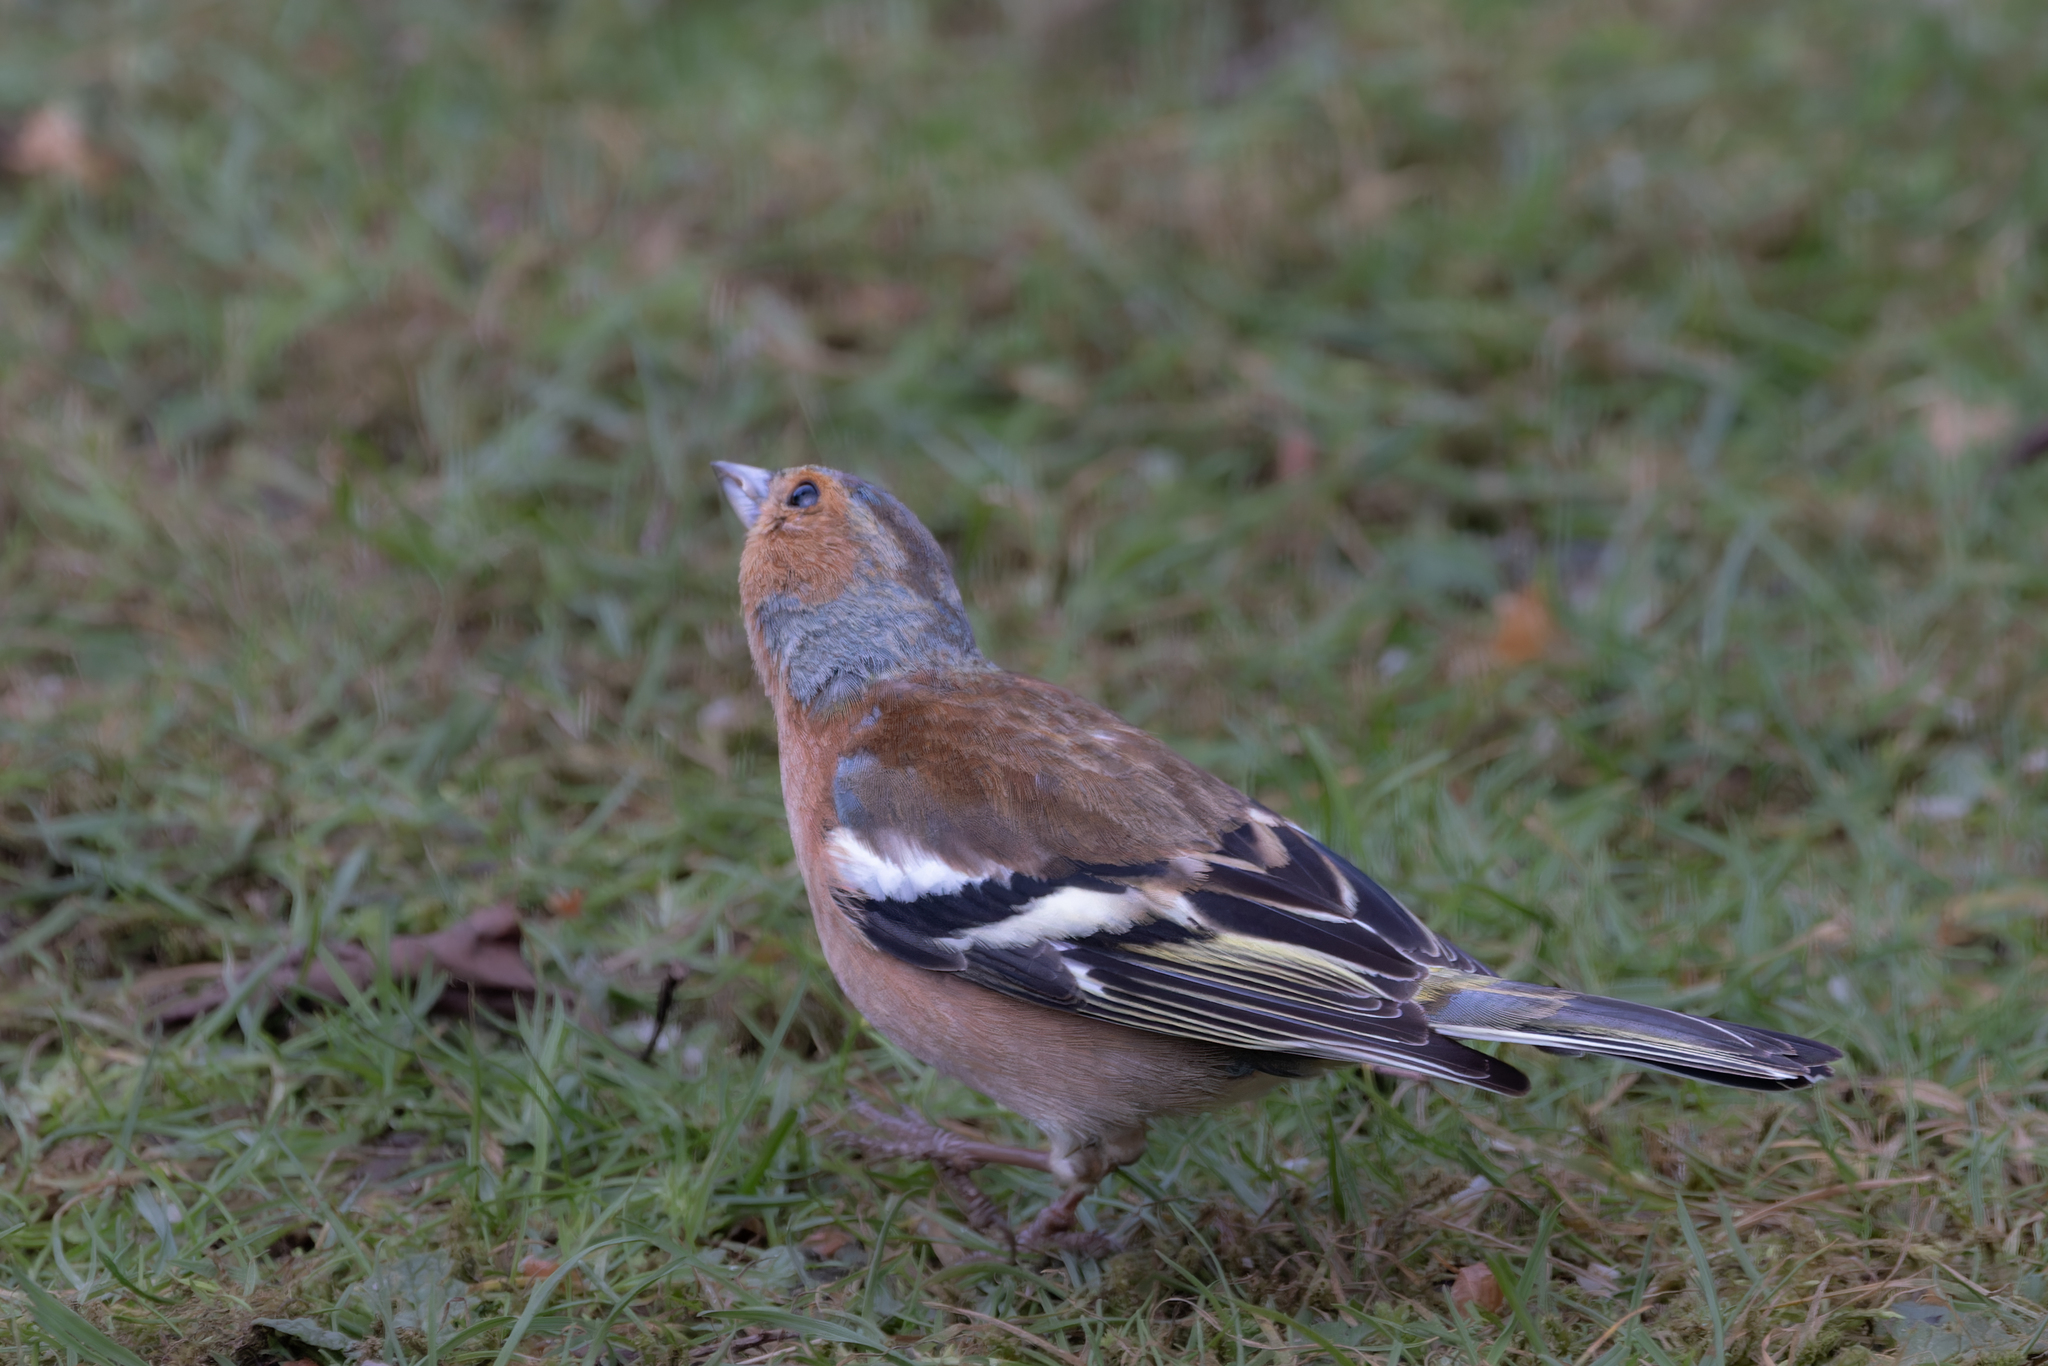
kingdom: Animalia
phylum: Chordata
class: Aves
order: Passeriformes
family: Fringillidae
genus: Fringilla
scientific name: Fringilla coelebs
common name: Common chaffinch
